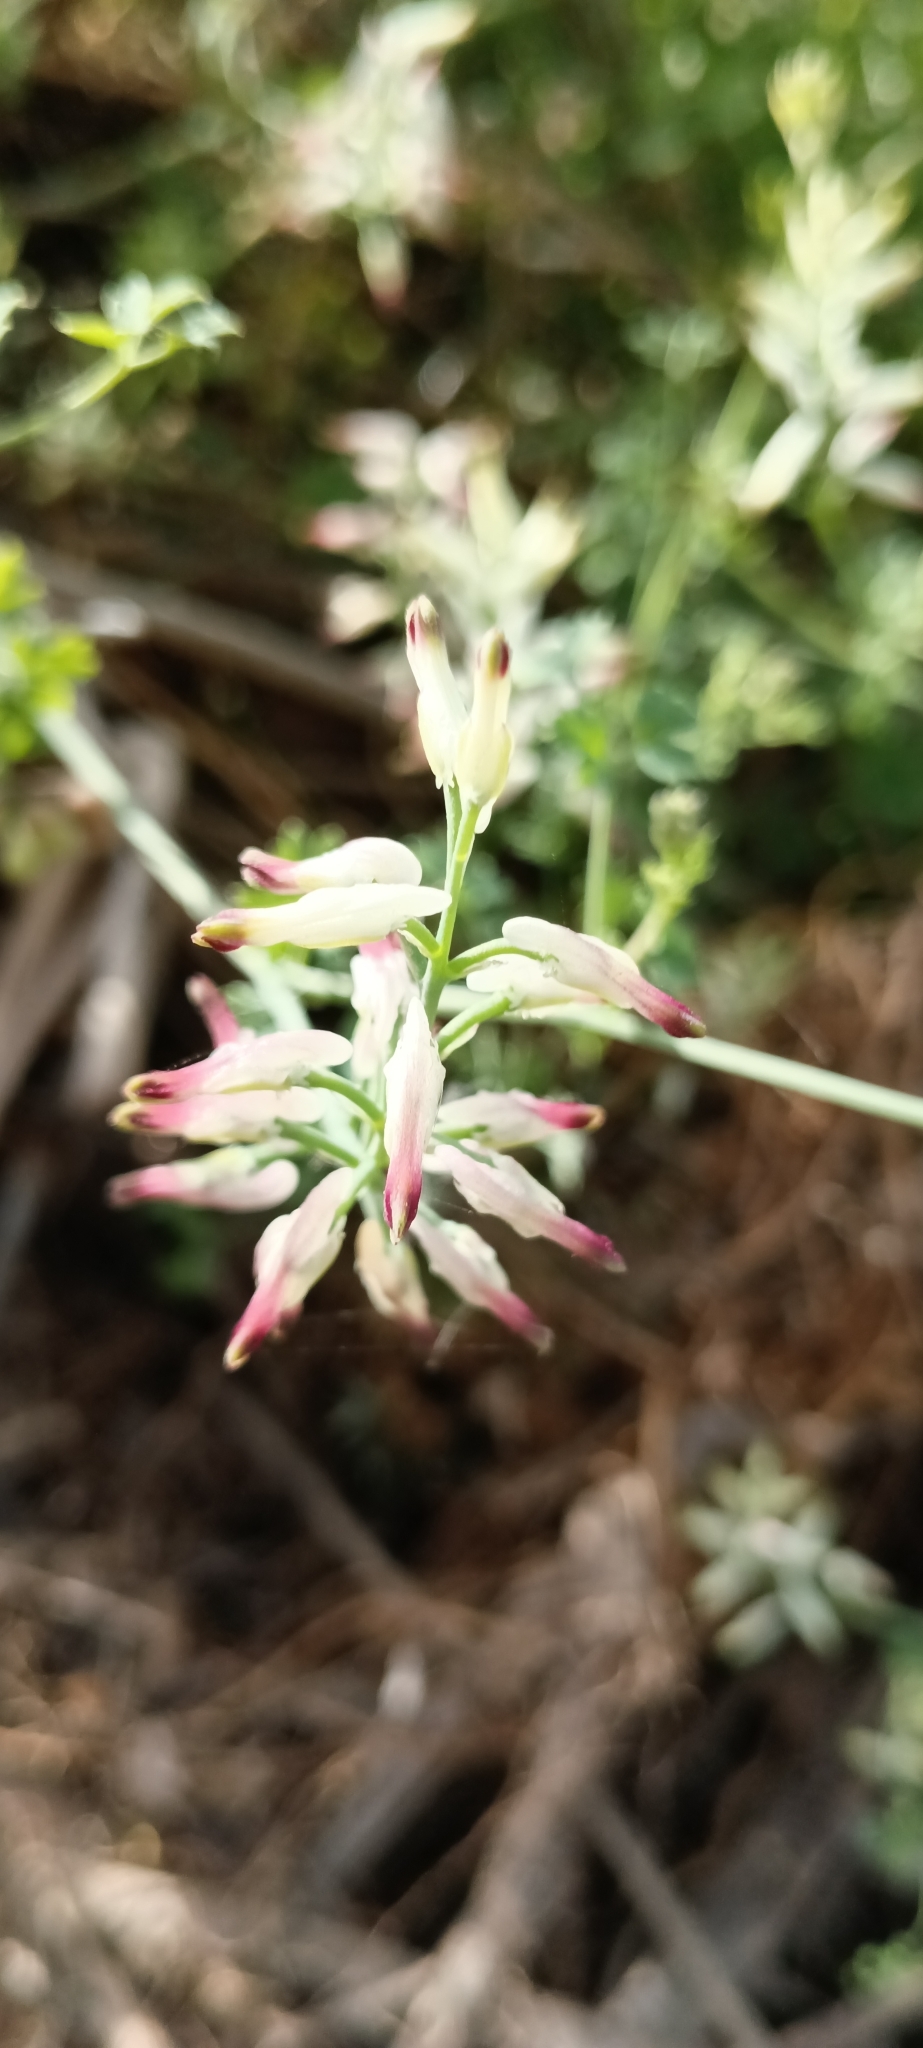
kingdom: Plantae
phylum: Tracheophyta
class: Magnoliopsida
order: Ranunculales
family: Papaveraceae
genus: Fumaria
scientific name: Fumaria capreolata
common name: White ramping-fumitory
